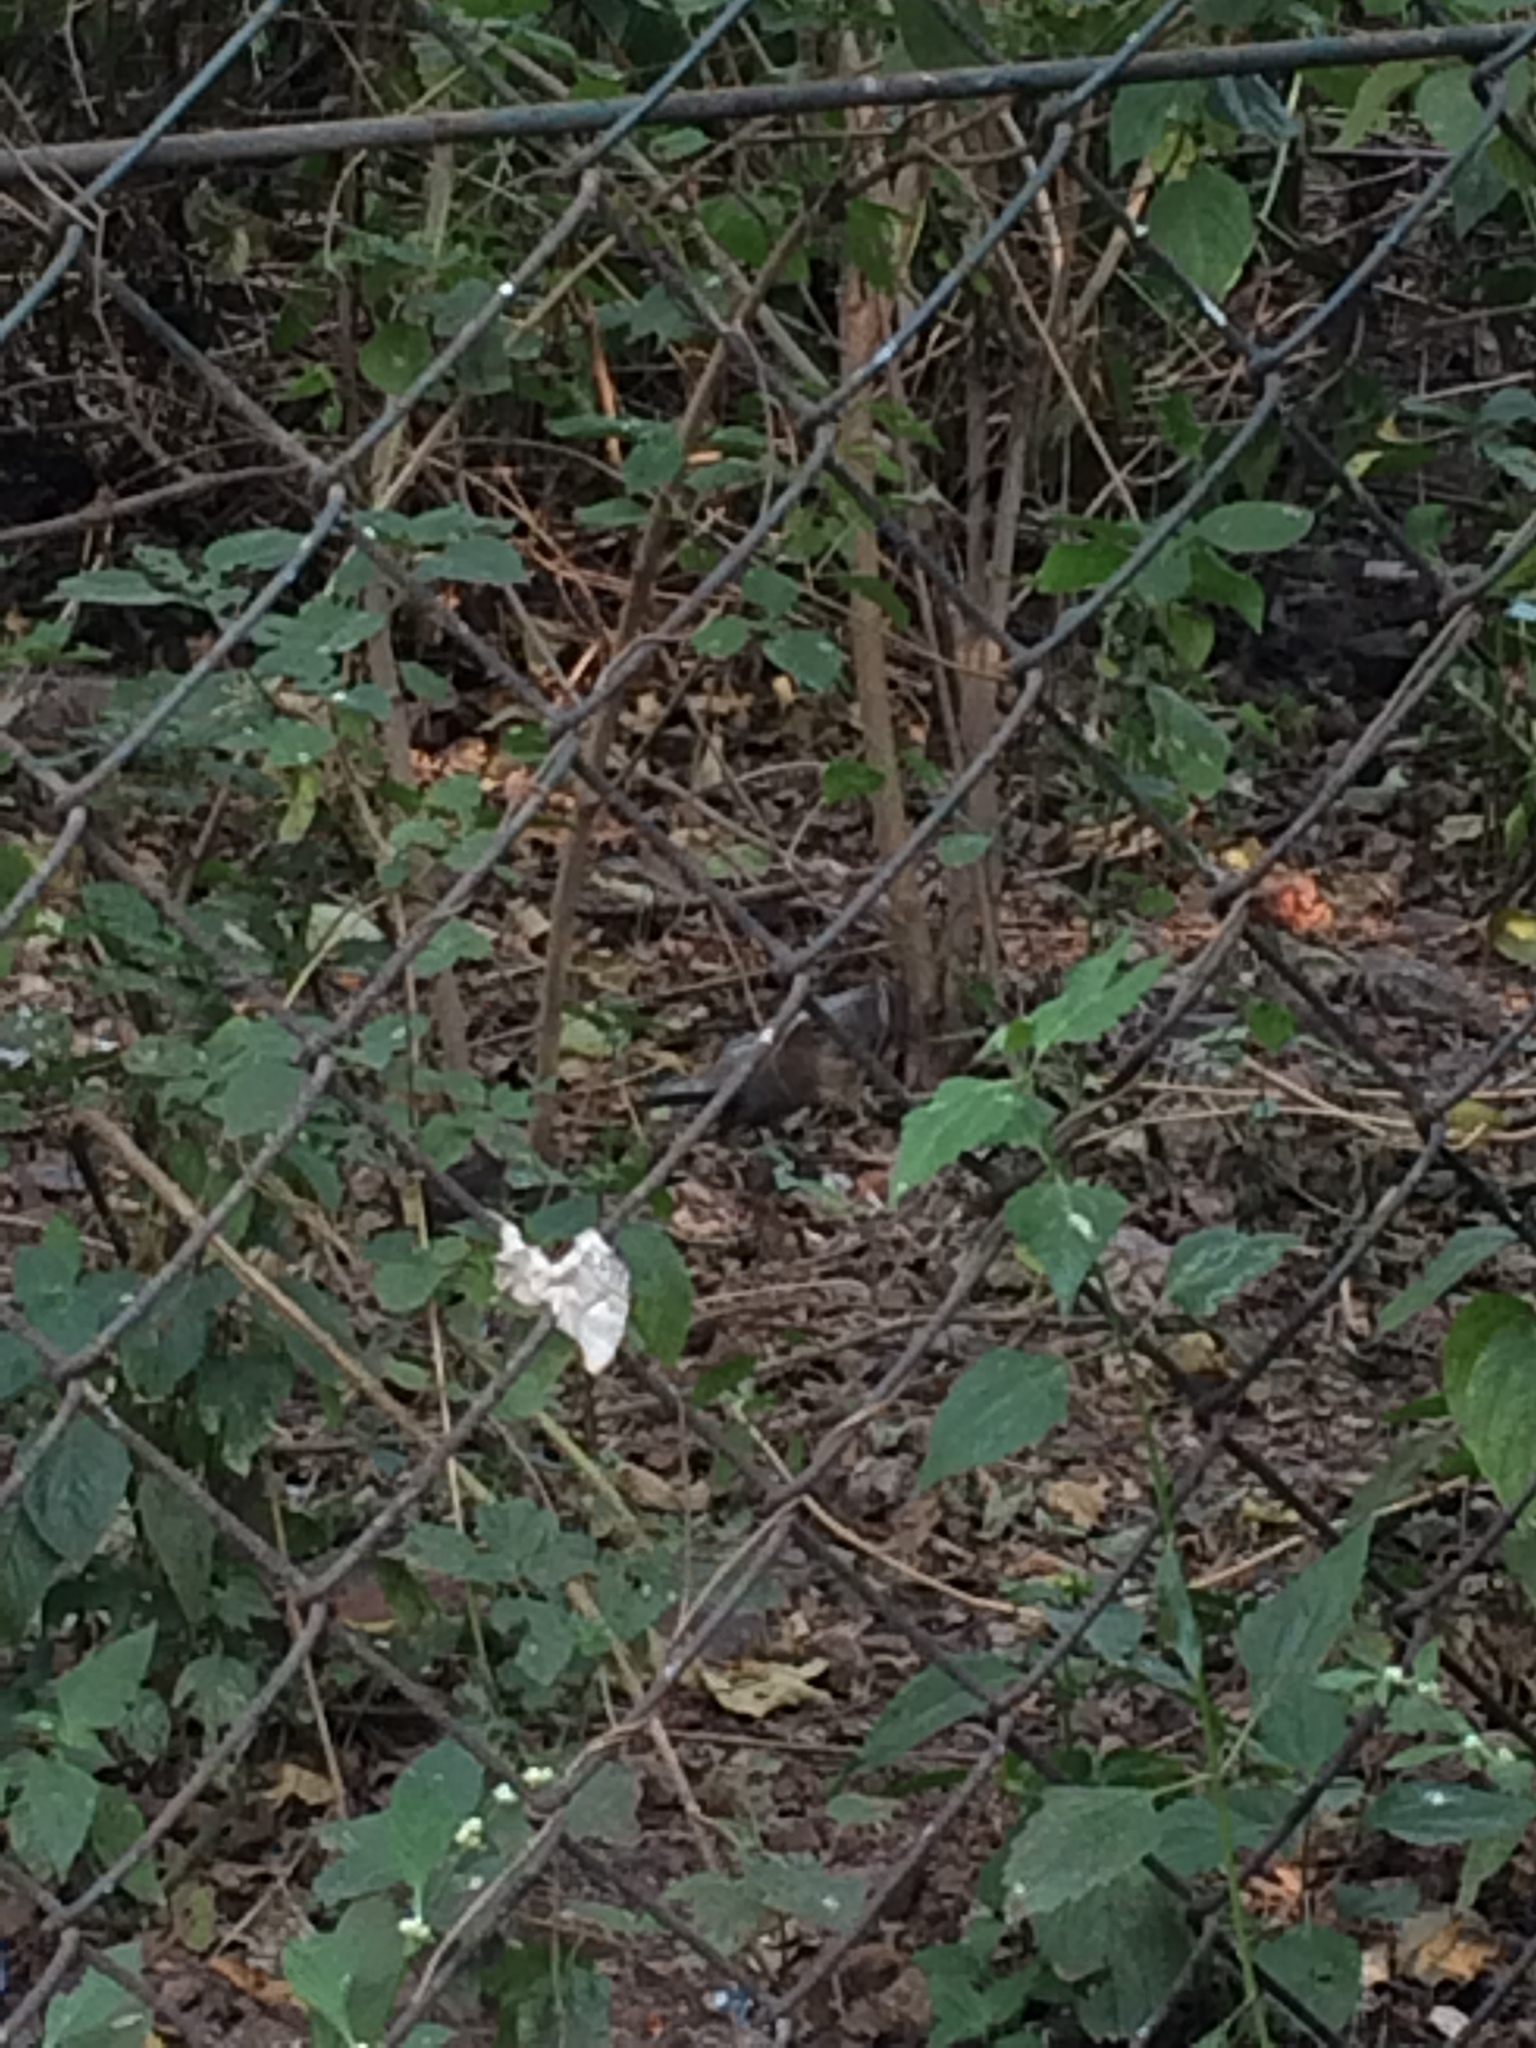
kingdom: Animalia
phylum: Chordata
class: Aves
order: Passeriformes
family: Muscicapidae
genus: Saxicoloides
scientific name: Saxicoloides fulicatus
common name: Indian robin
